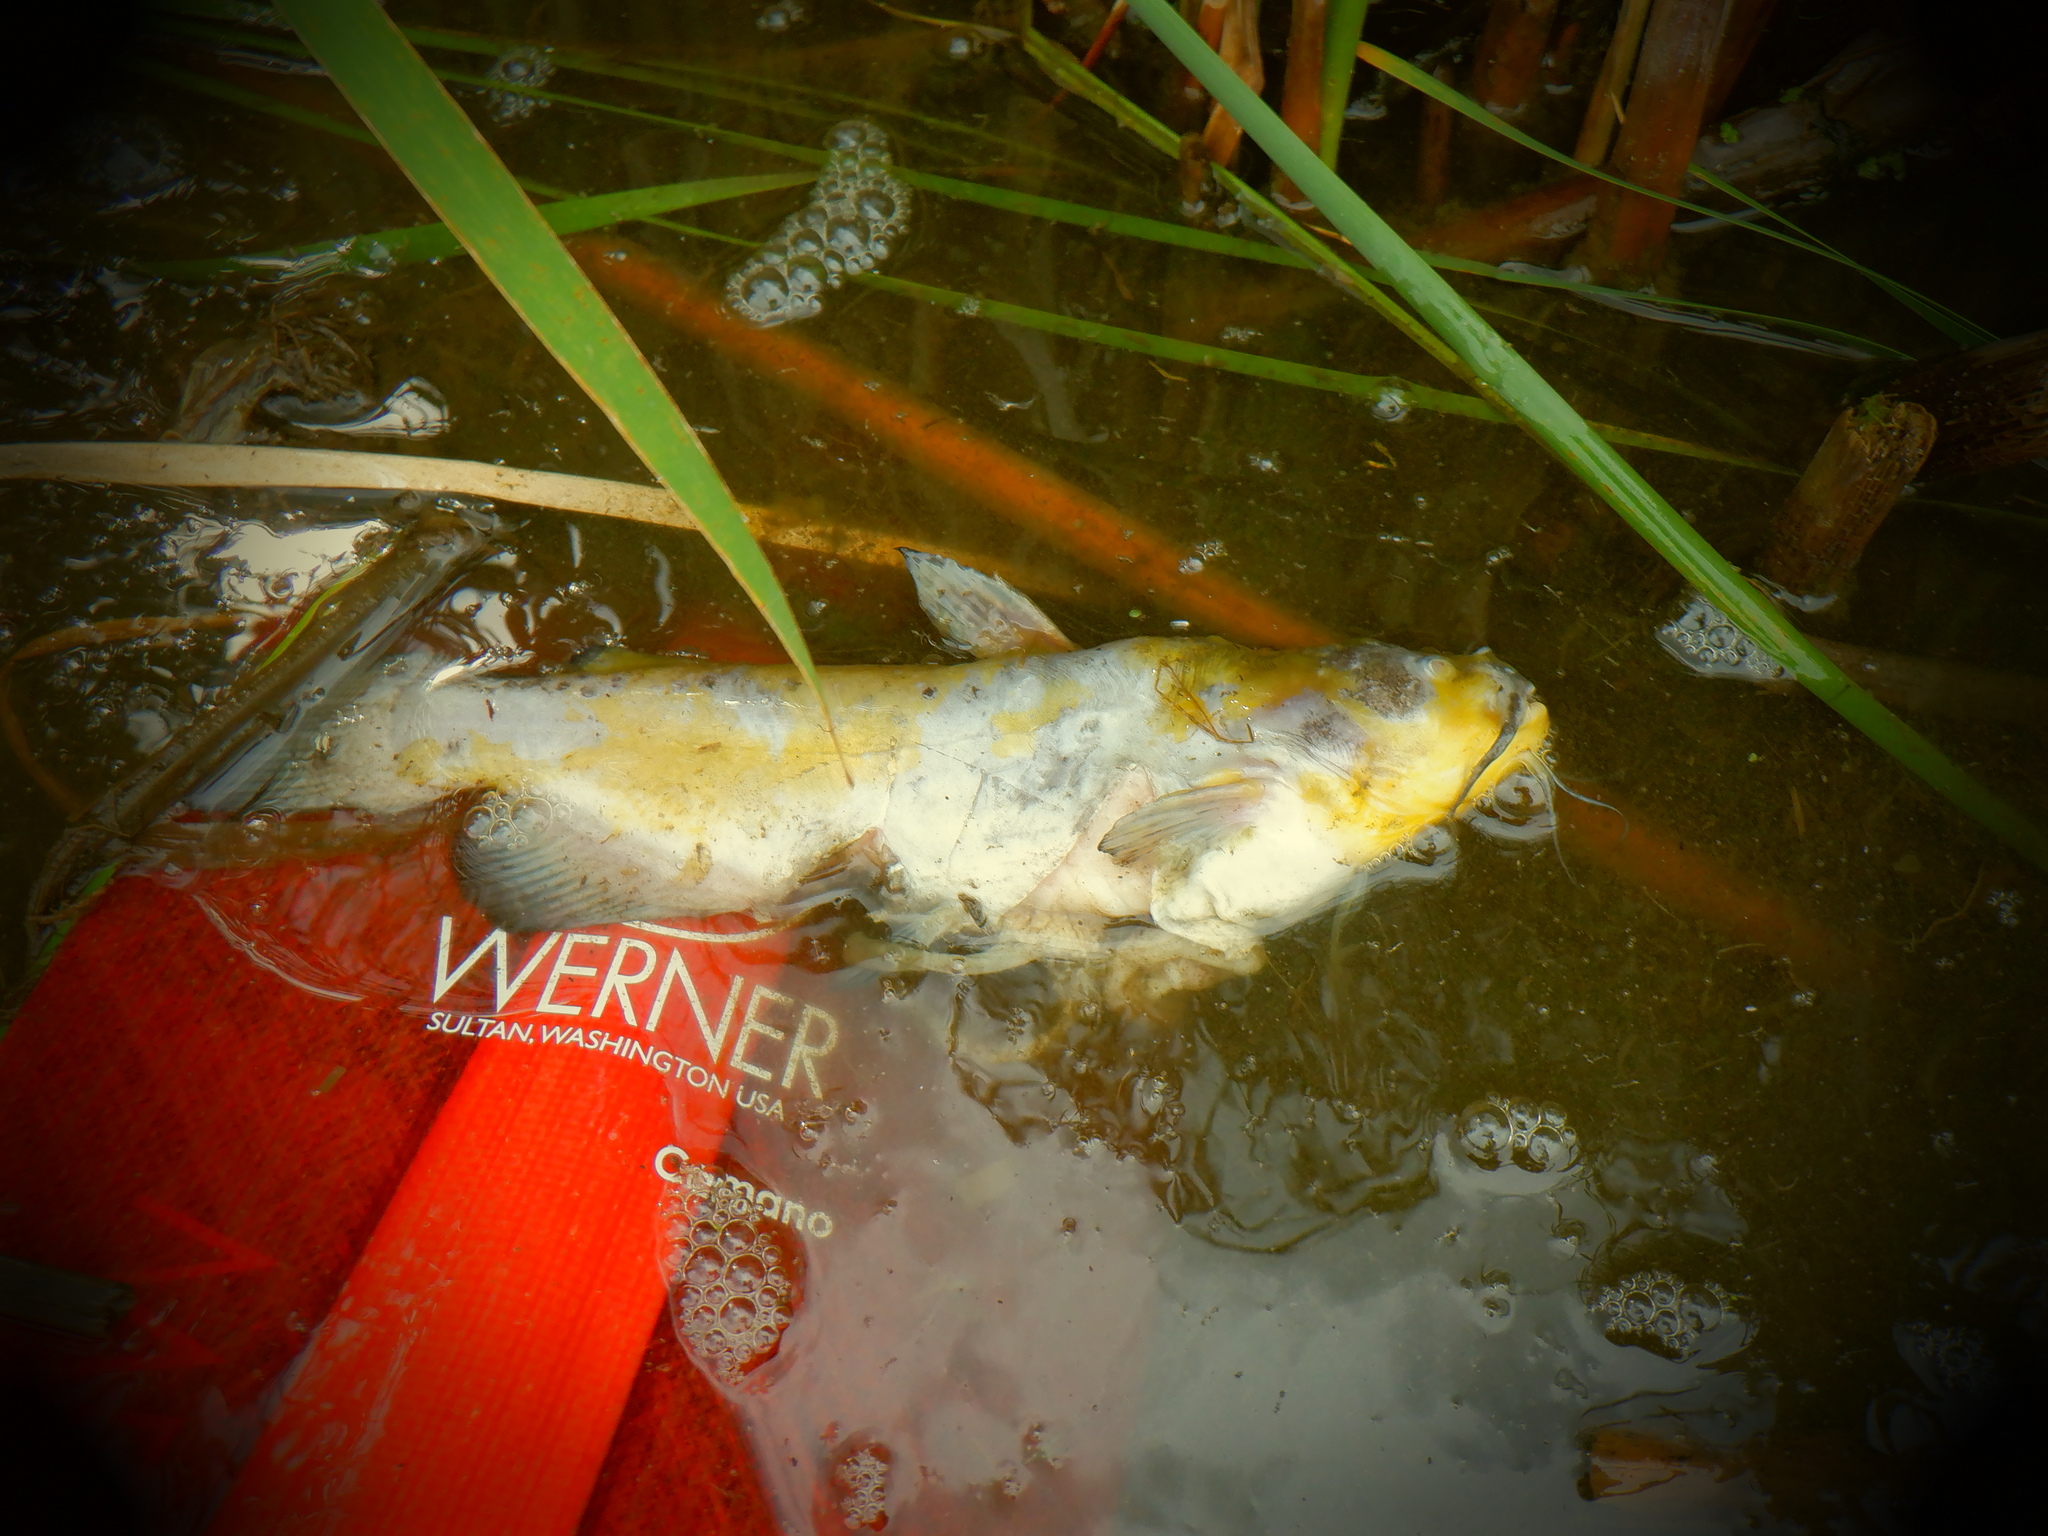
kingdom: Animalia
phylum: Chordata
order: Siluriformes
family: Ictaluridae
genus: Ameiurus
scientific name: Ameiurus melas
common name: Black bullhead
